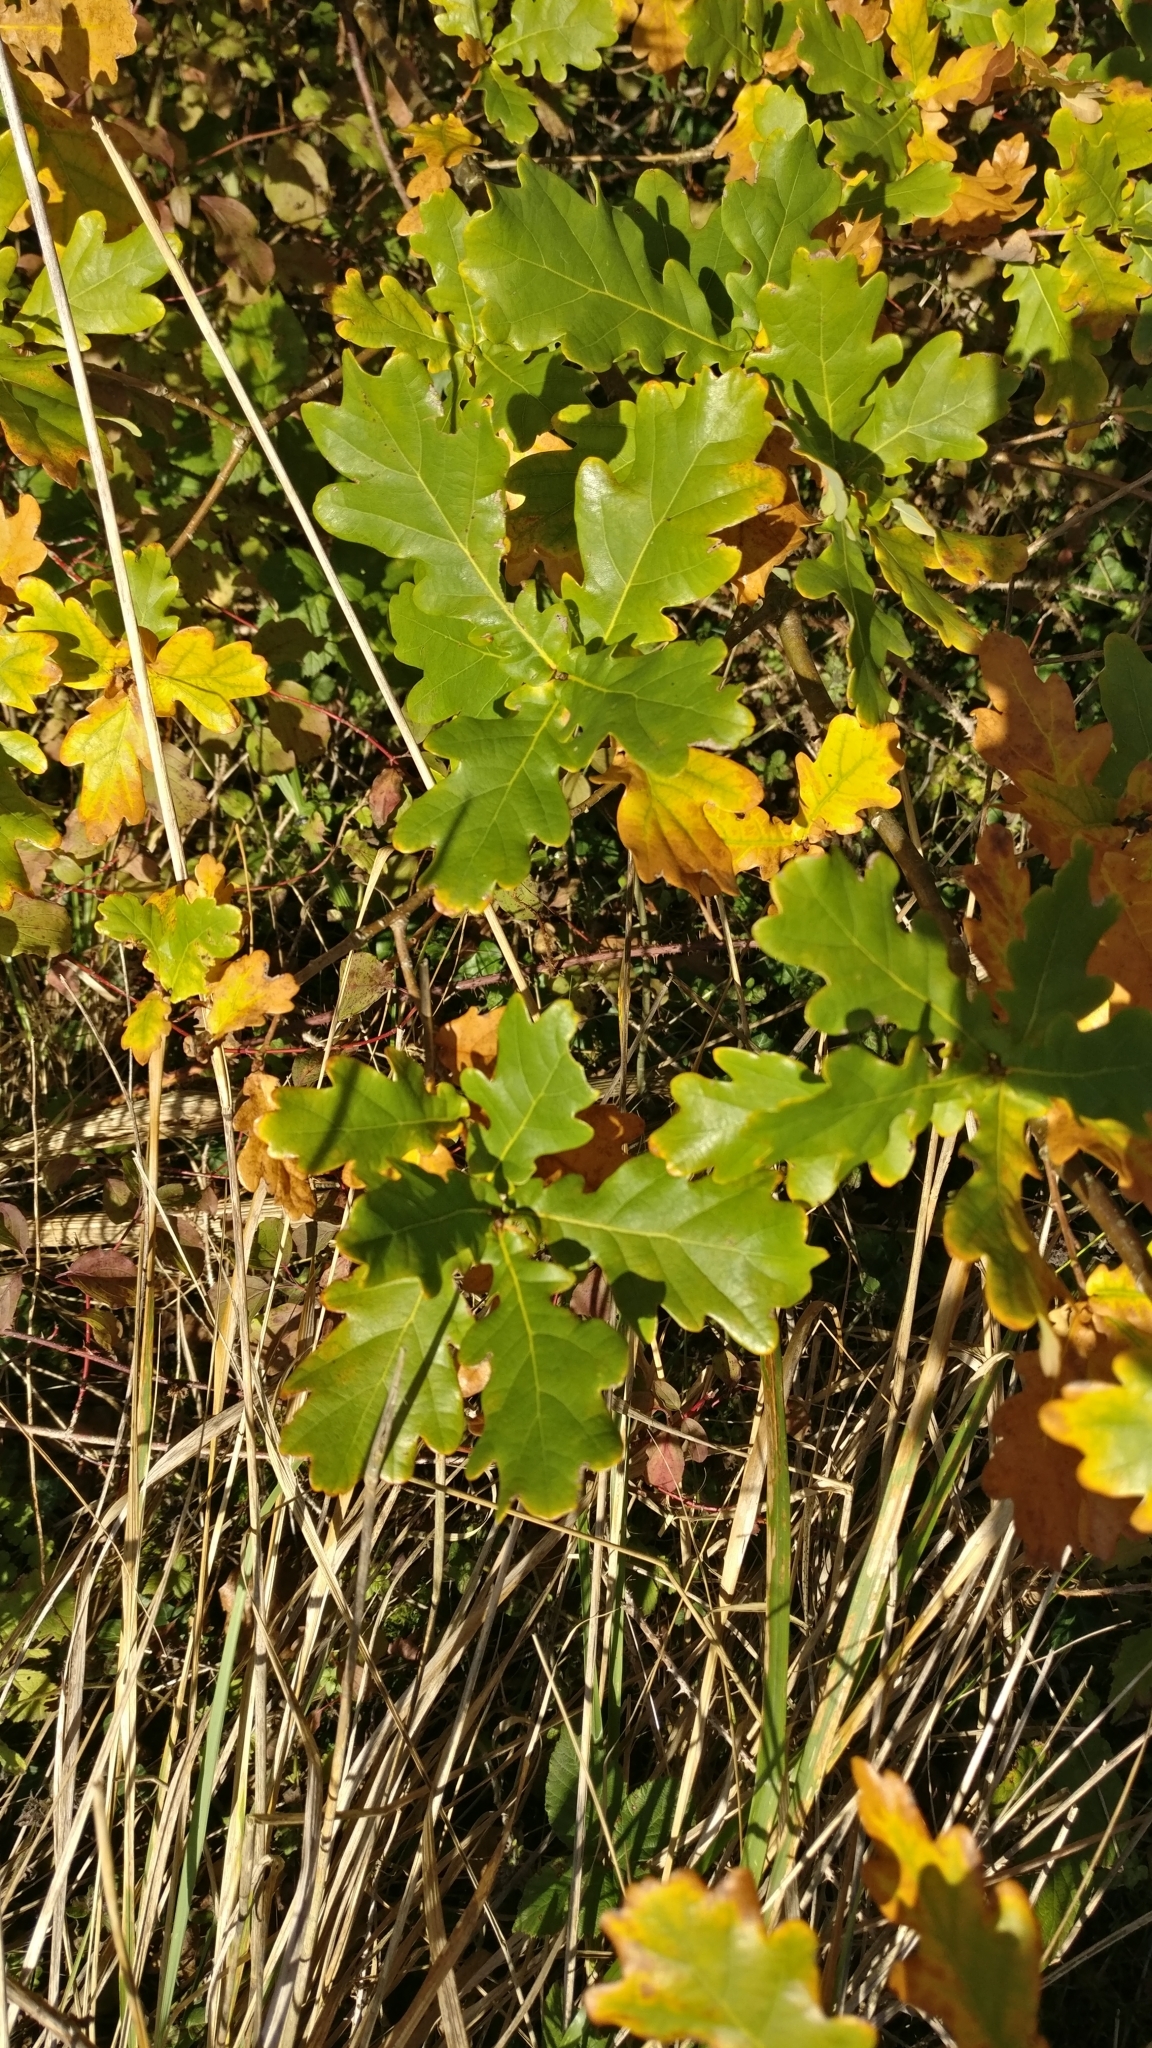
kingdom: Plantae
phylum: Tracheophyta
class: Magnoliopsida
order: Fagales
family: Fagaceae
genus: Quercus
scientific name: Quercus robur
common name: Pedunculate oak
